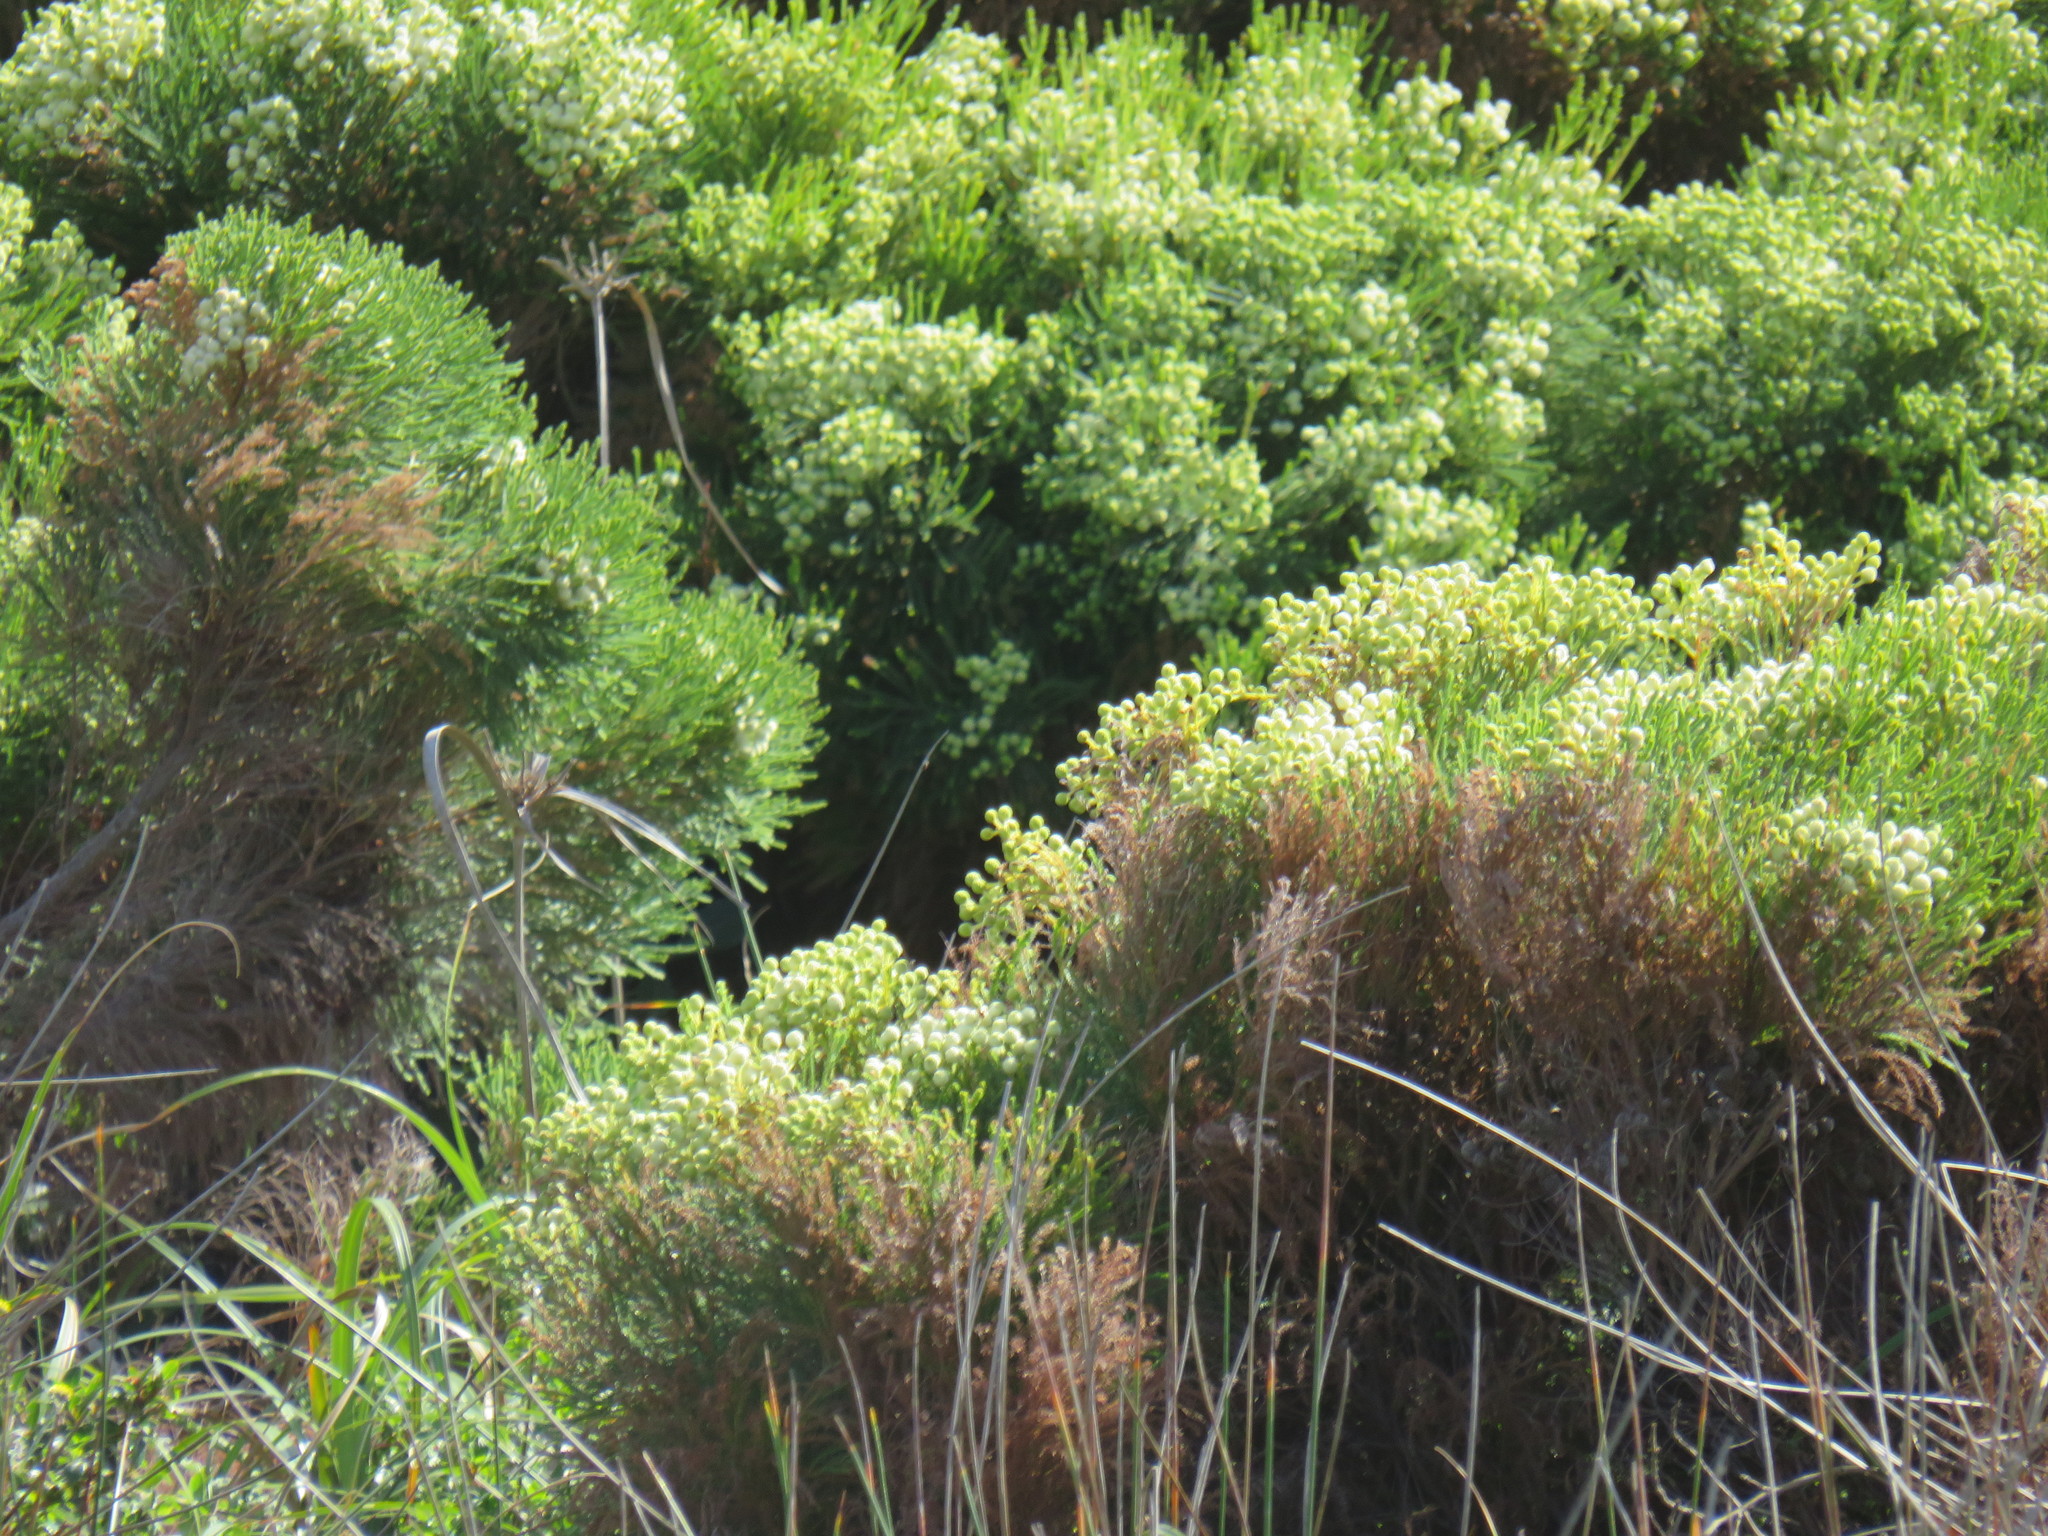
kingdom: Plantae
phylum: Tracheophyta
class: Magnoliopsida
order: Bruniales
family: Bruniaceae
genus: Berzelia
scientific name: Berzelia lanuginosa
